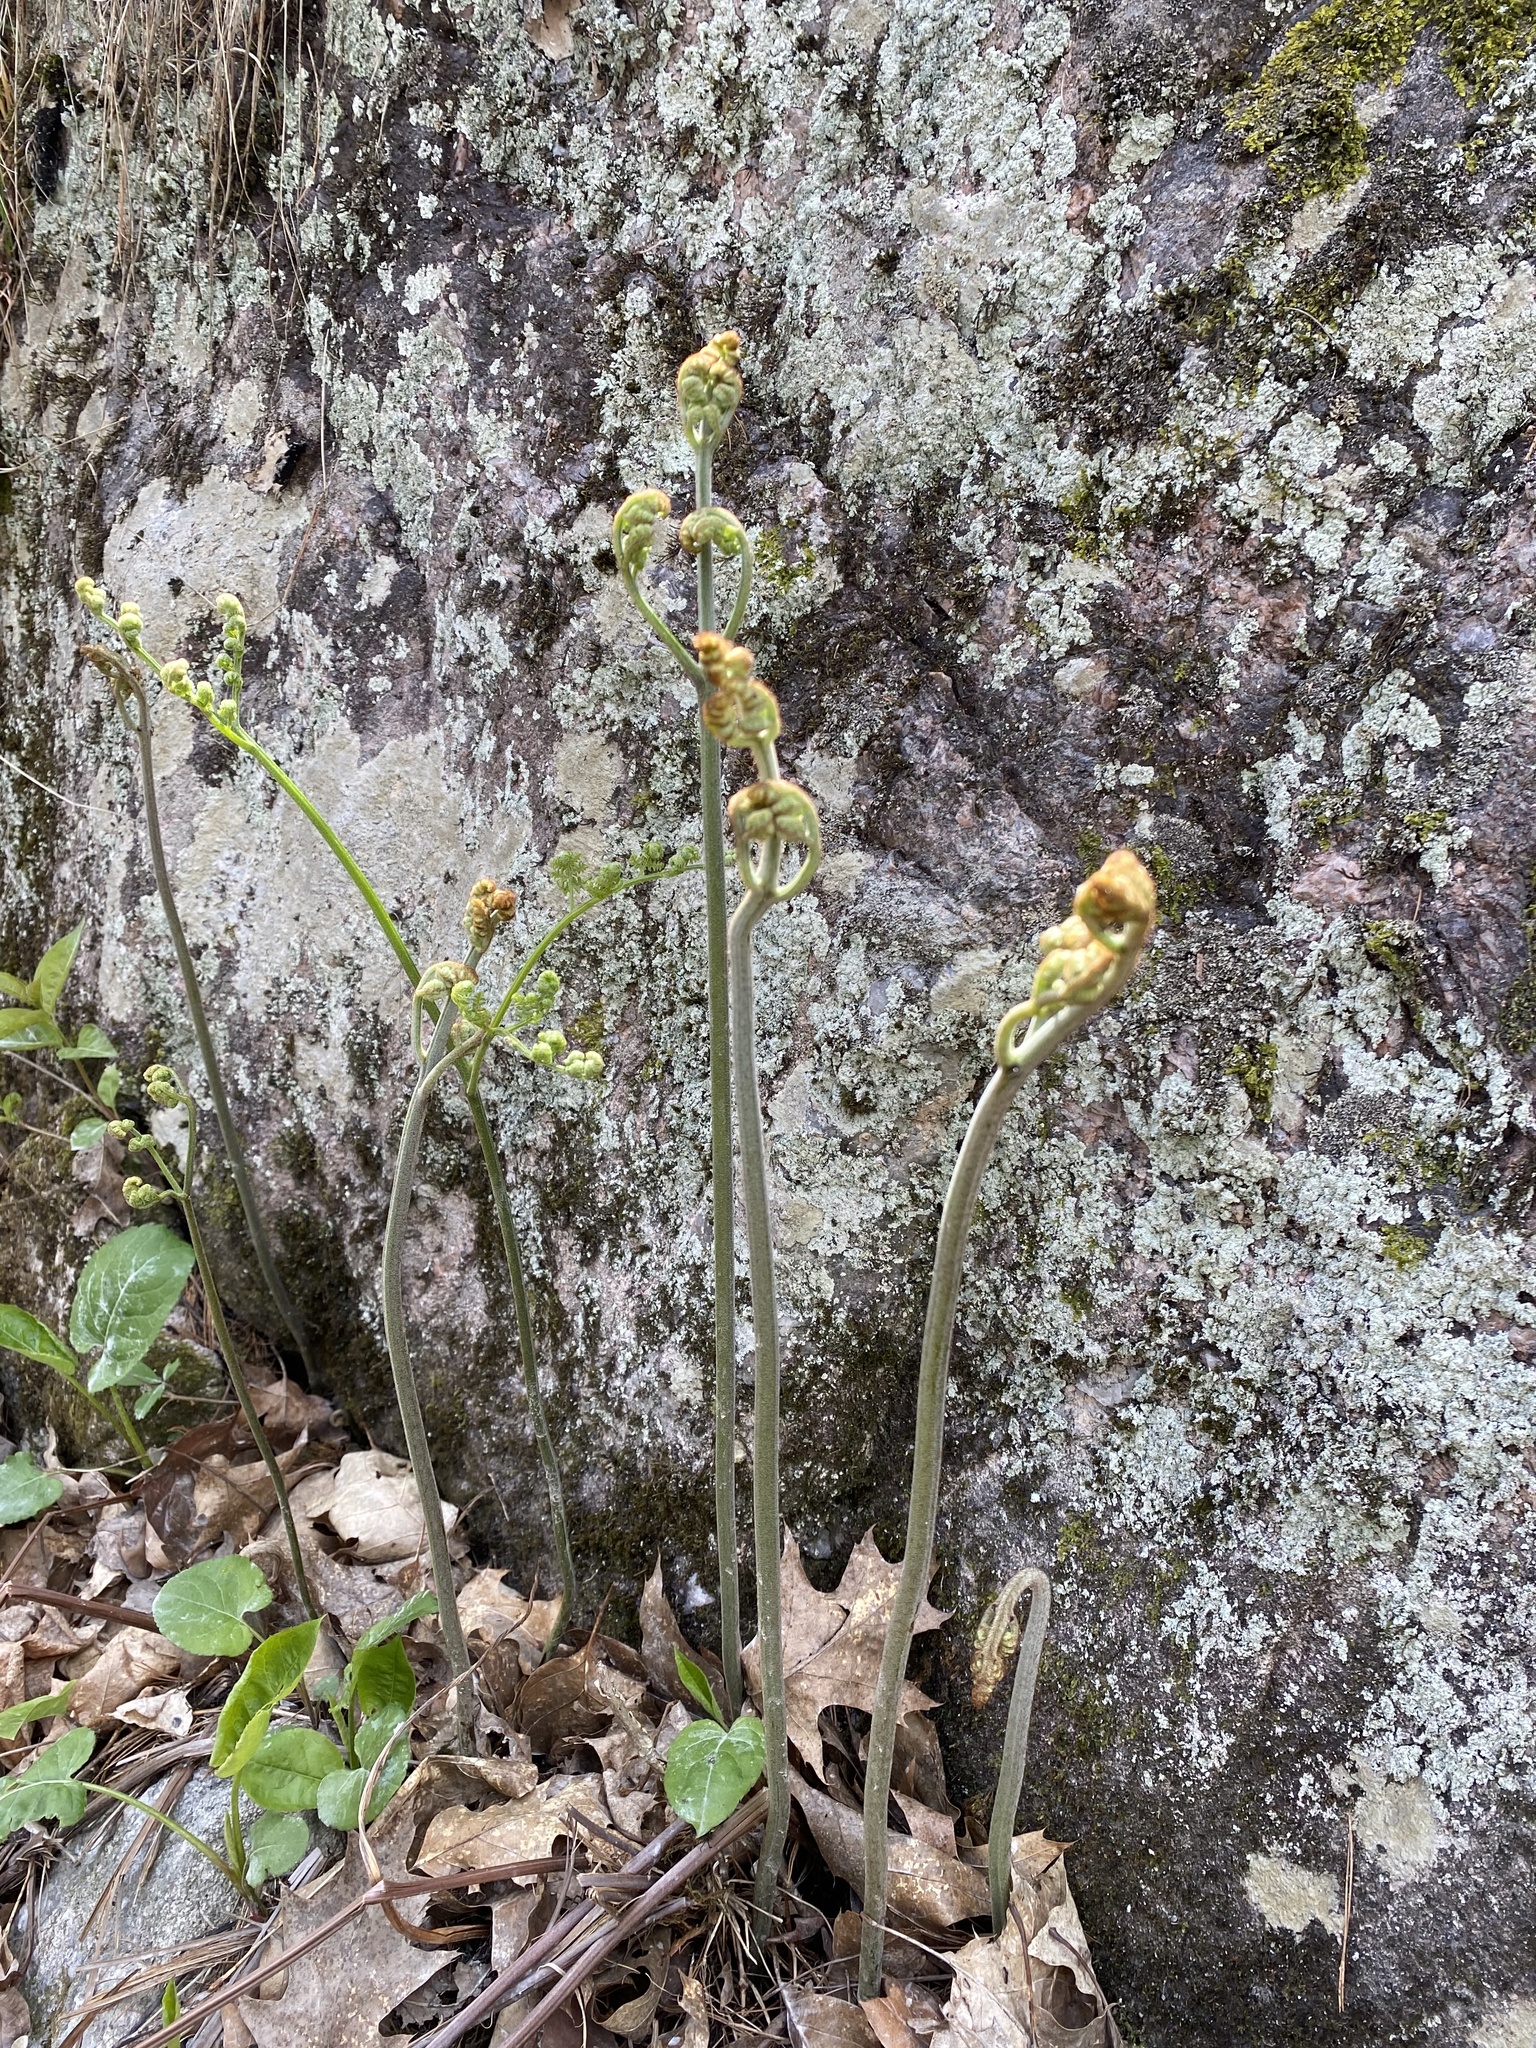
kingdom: Plantae
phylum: Tracheophyta
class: Polypodiopsida
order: Polypodiales
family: Dennstaedtiaceae
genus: Pteridium
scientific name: Pteridium aquilinum
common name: Bracken
